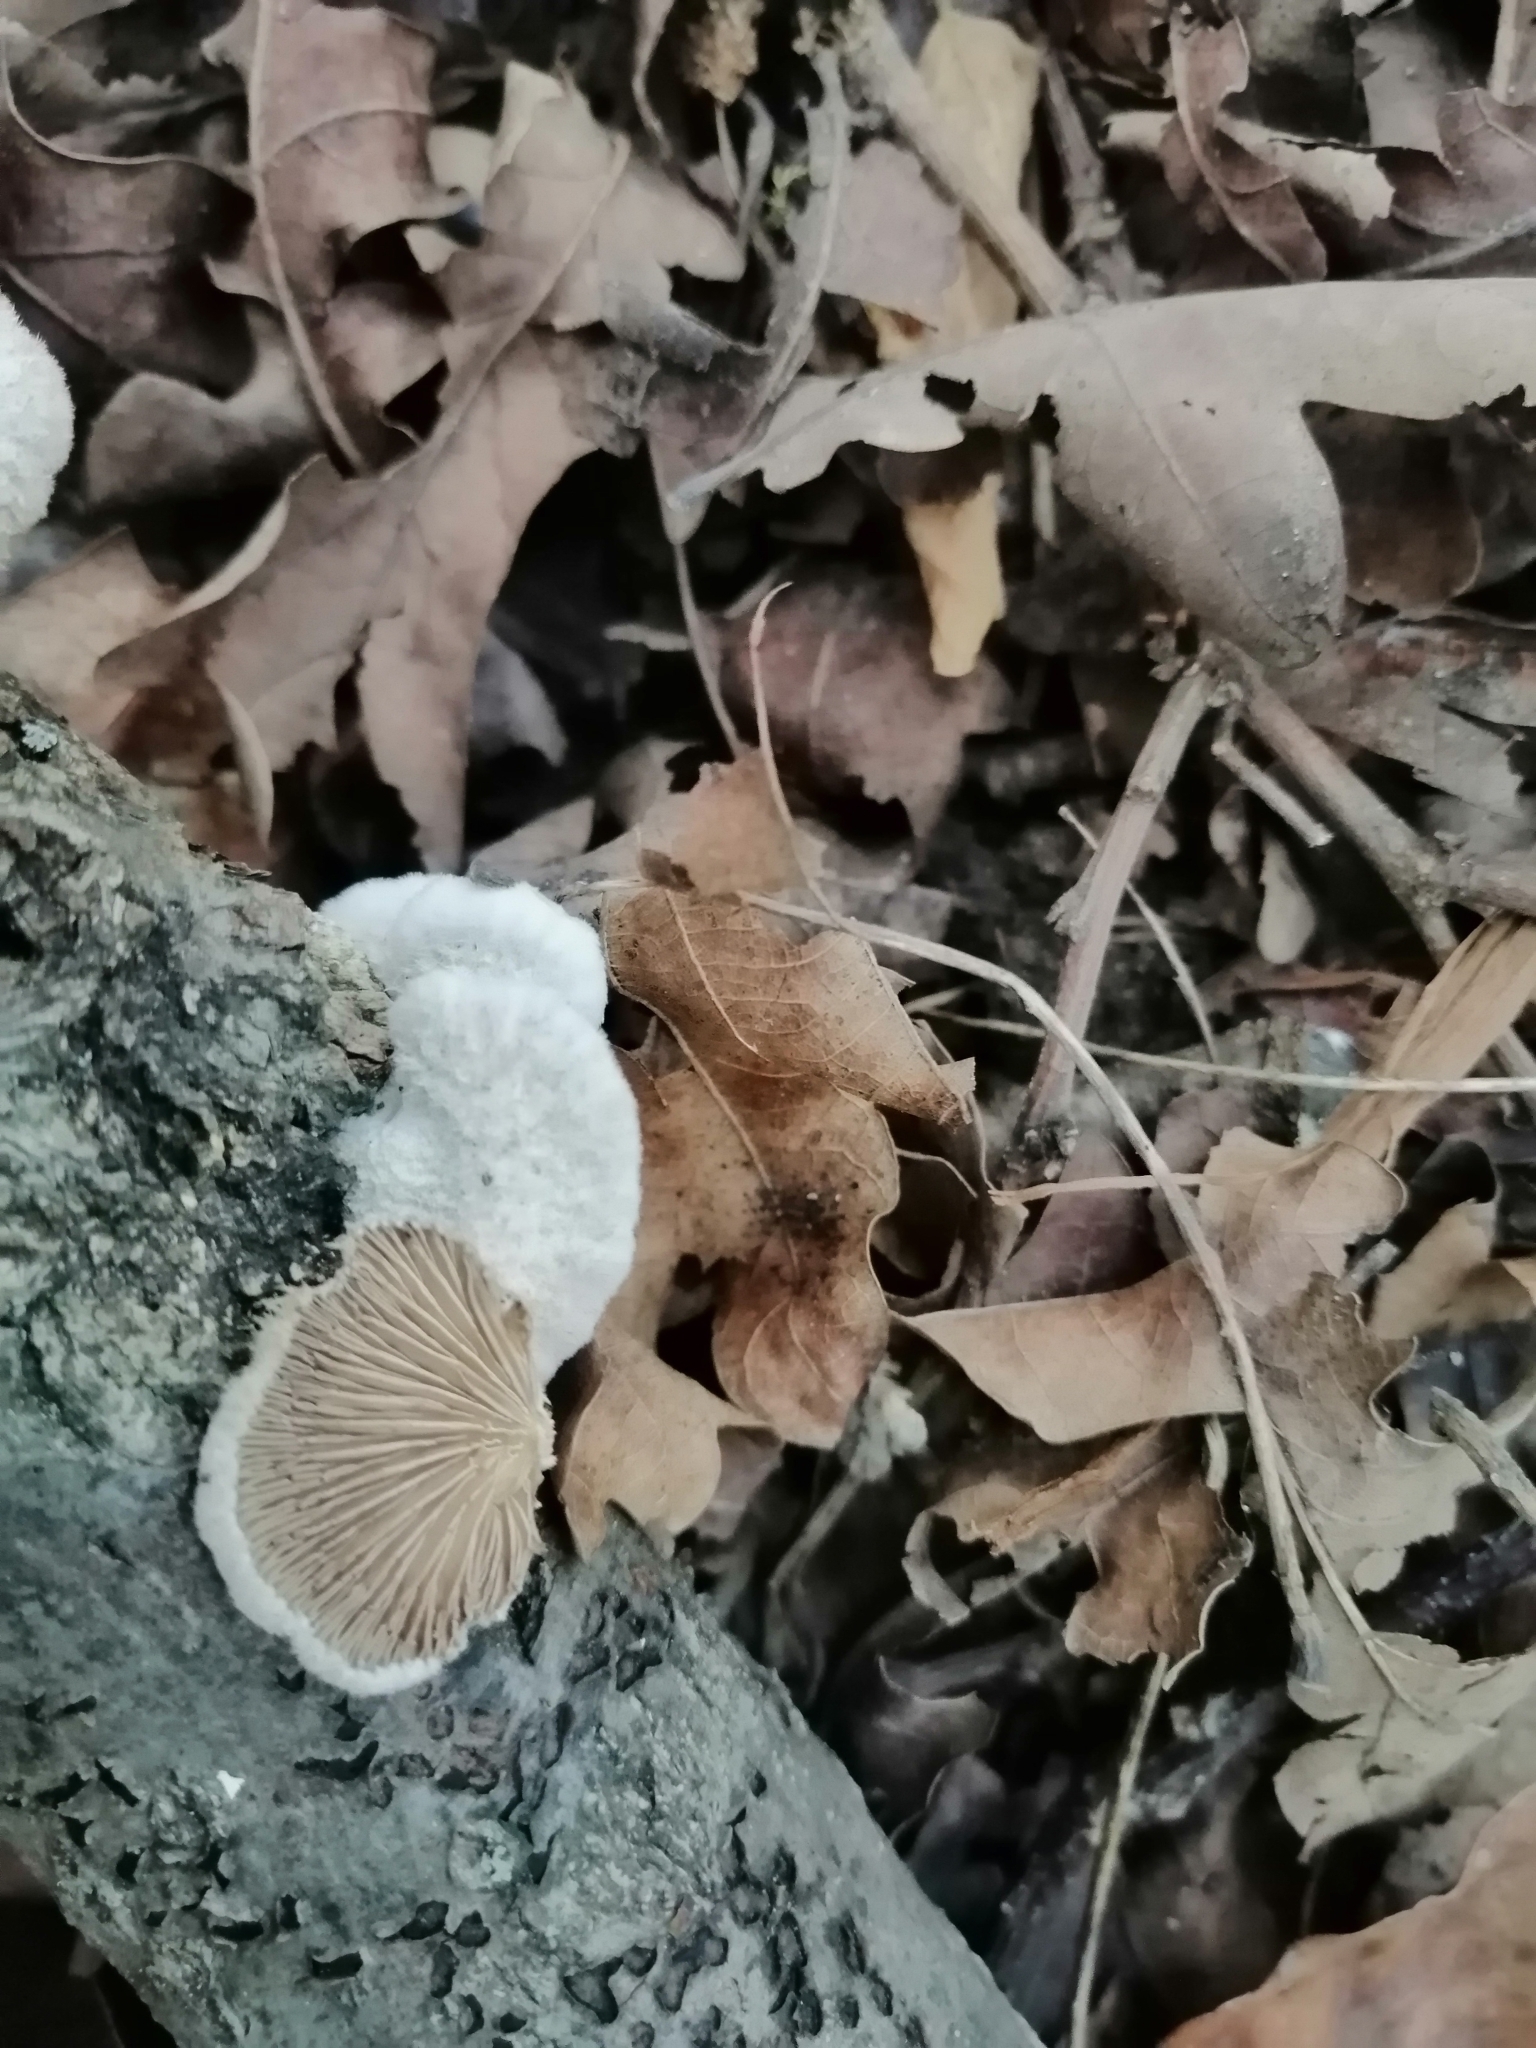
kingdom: Fungi
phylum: Basidiomycota
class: Agaricomycetes
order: Agaricales
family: Schizophyllaceae
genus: Schizophyllum
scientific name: Schizophyllum commune
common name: Common porecrust
